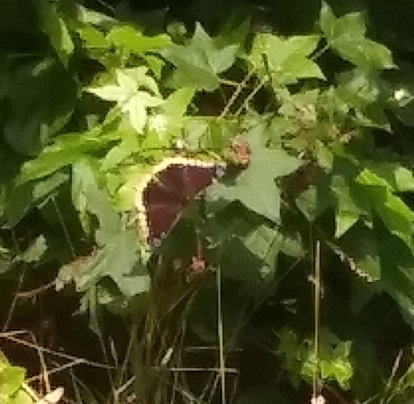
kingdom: Animalia
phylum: Arthropoda
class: Insecta
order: Lepidoptera
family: Nymphalidae
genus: Nymphalis
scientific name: Nymphalis antiopa
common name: Camberwell beauty
